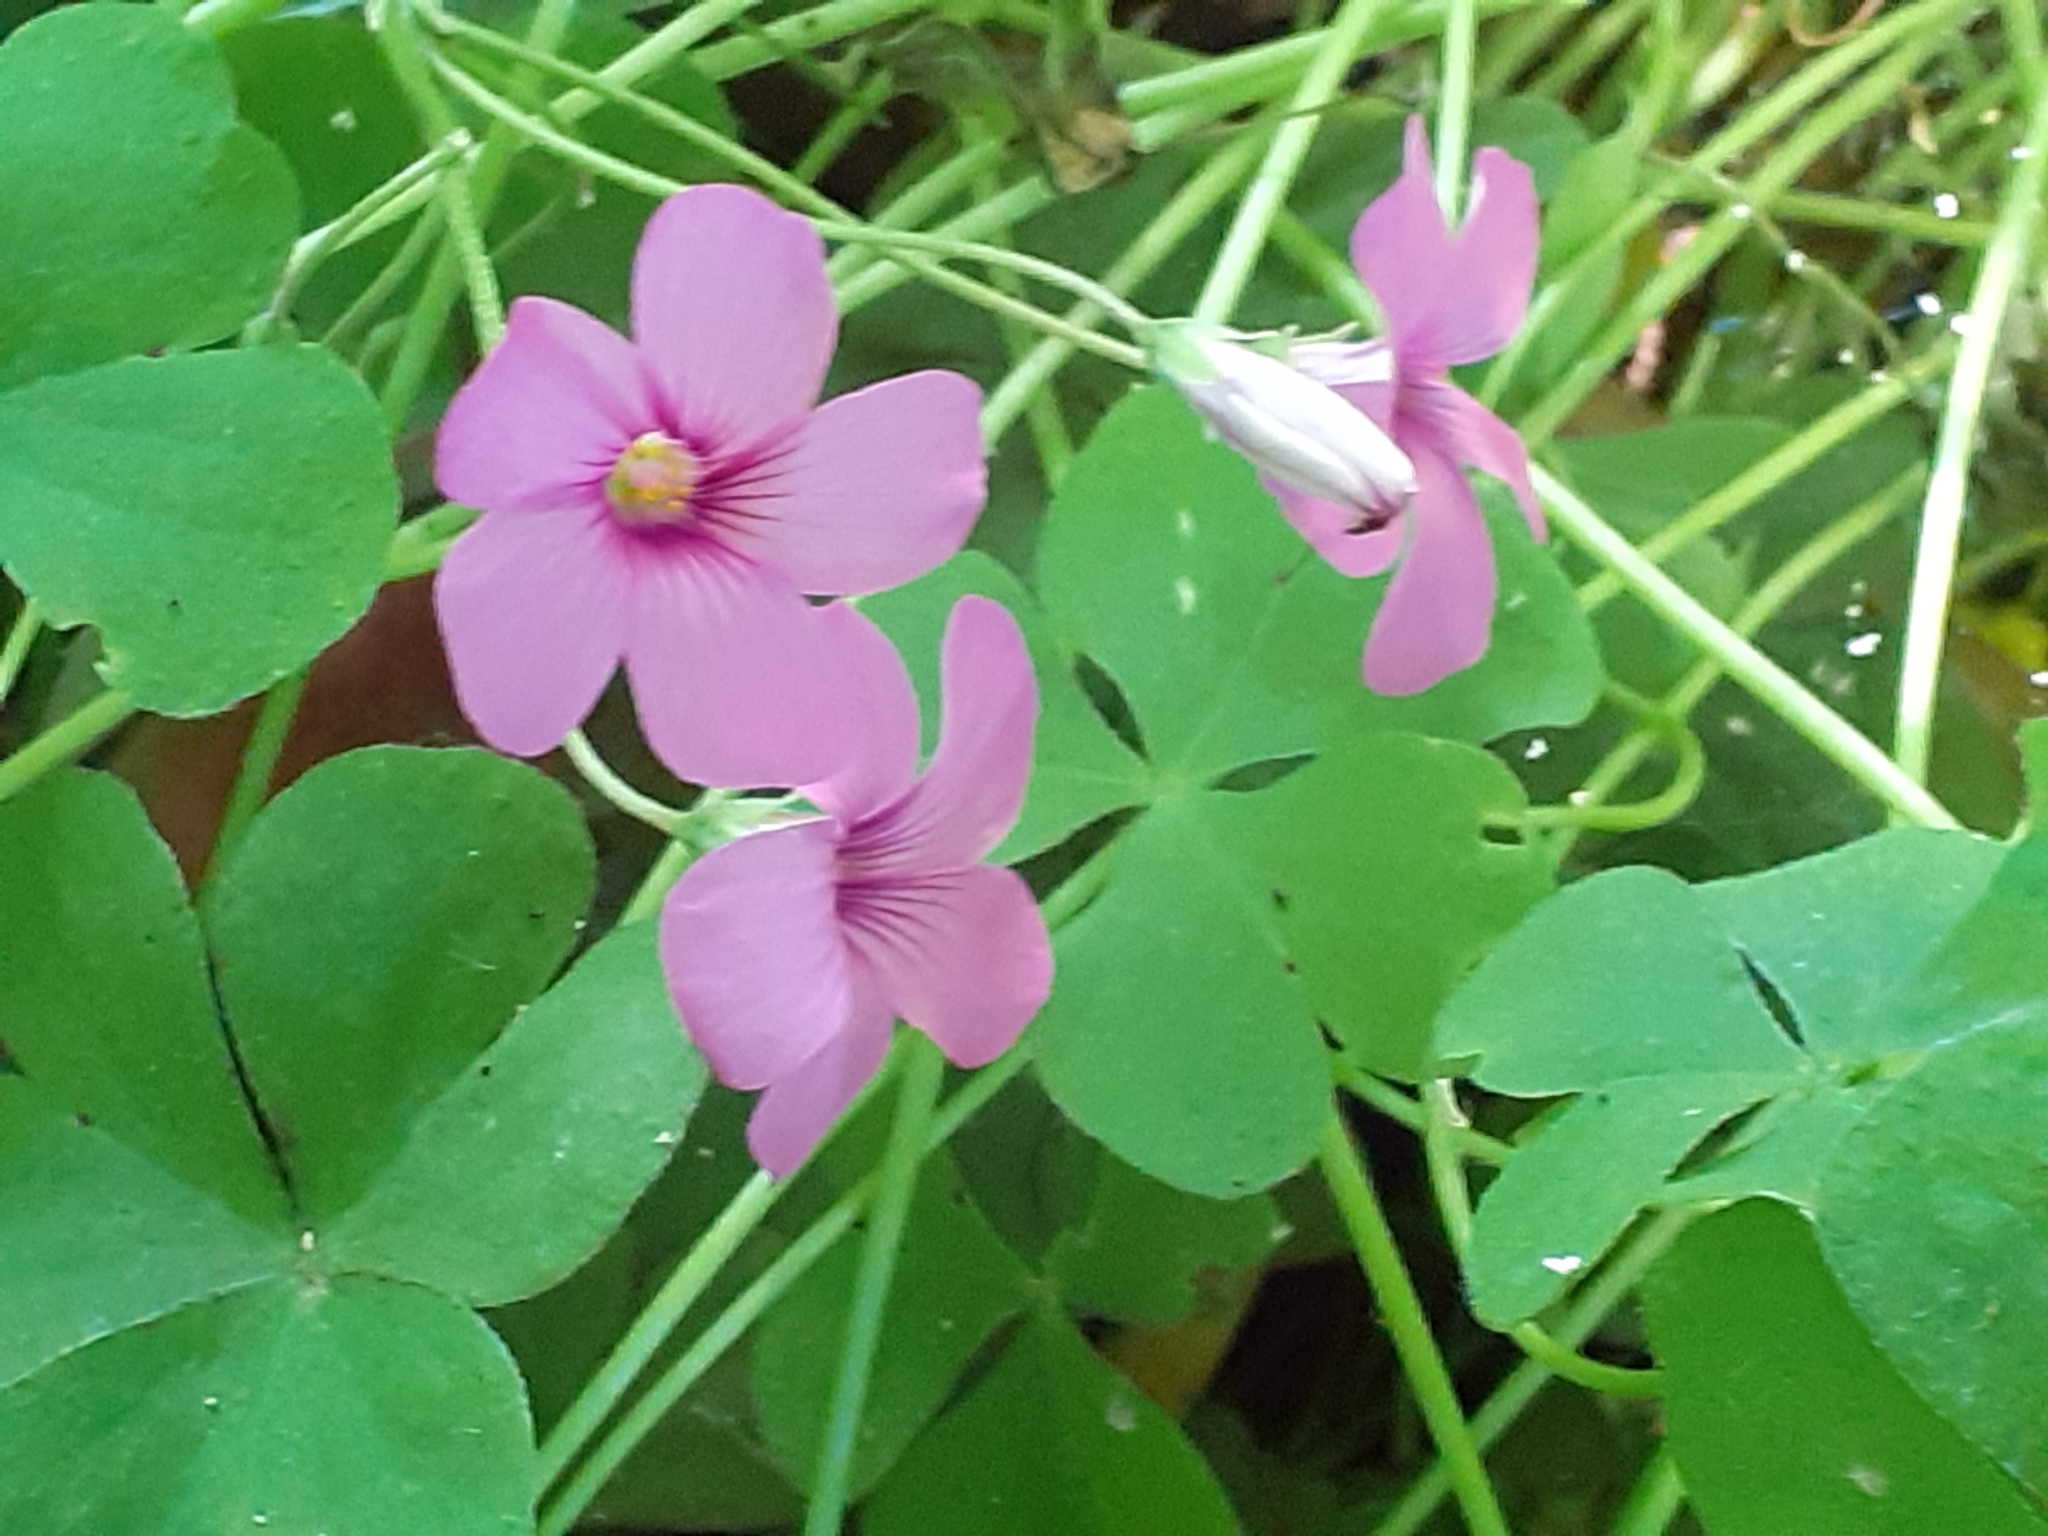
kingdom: Plantae
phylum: Tracheophyta
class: Magnoliopsida
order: Oxalidales
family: Oxalidaceae
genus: Oxalis
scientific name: Oxalis articulata
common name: Pink-sorrel
